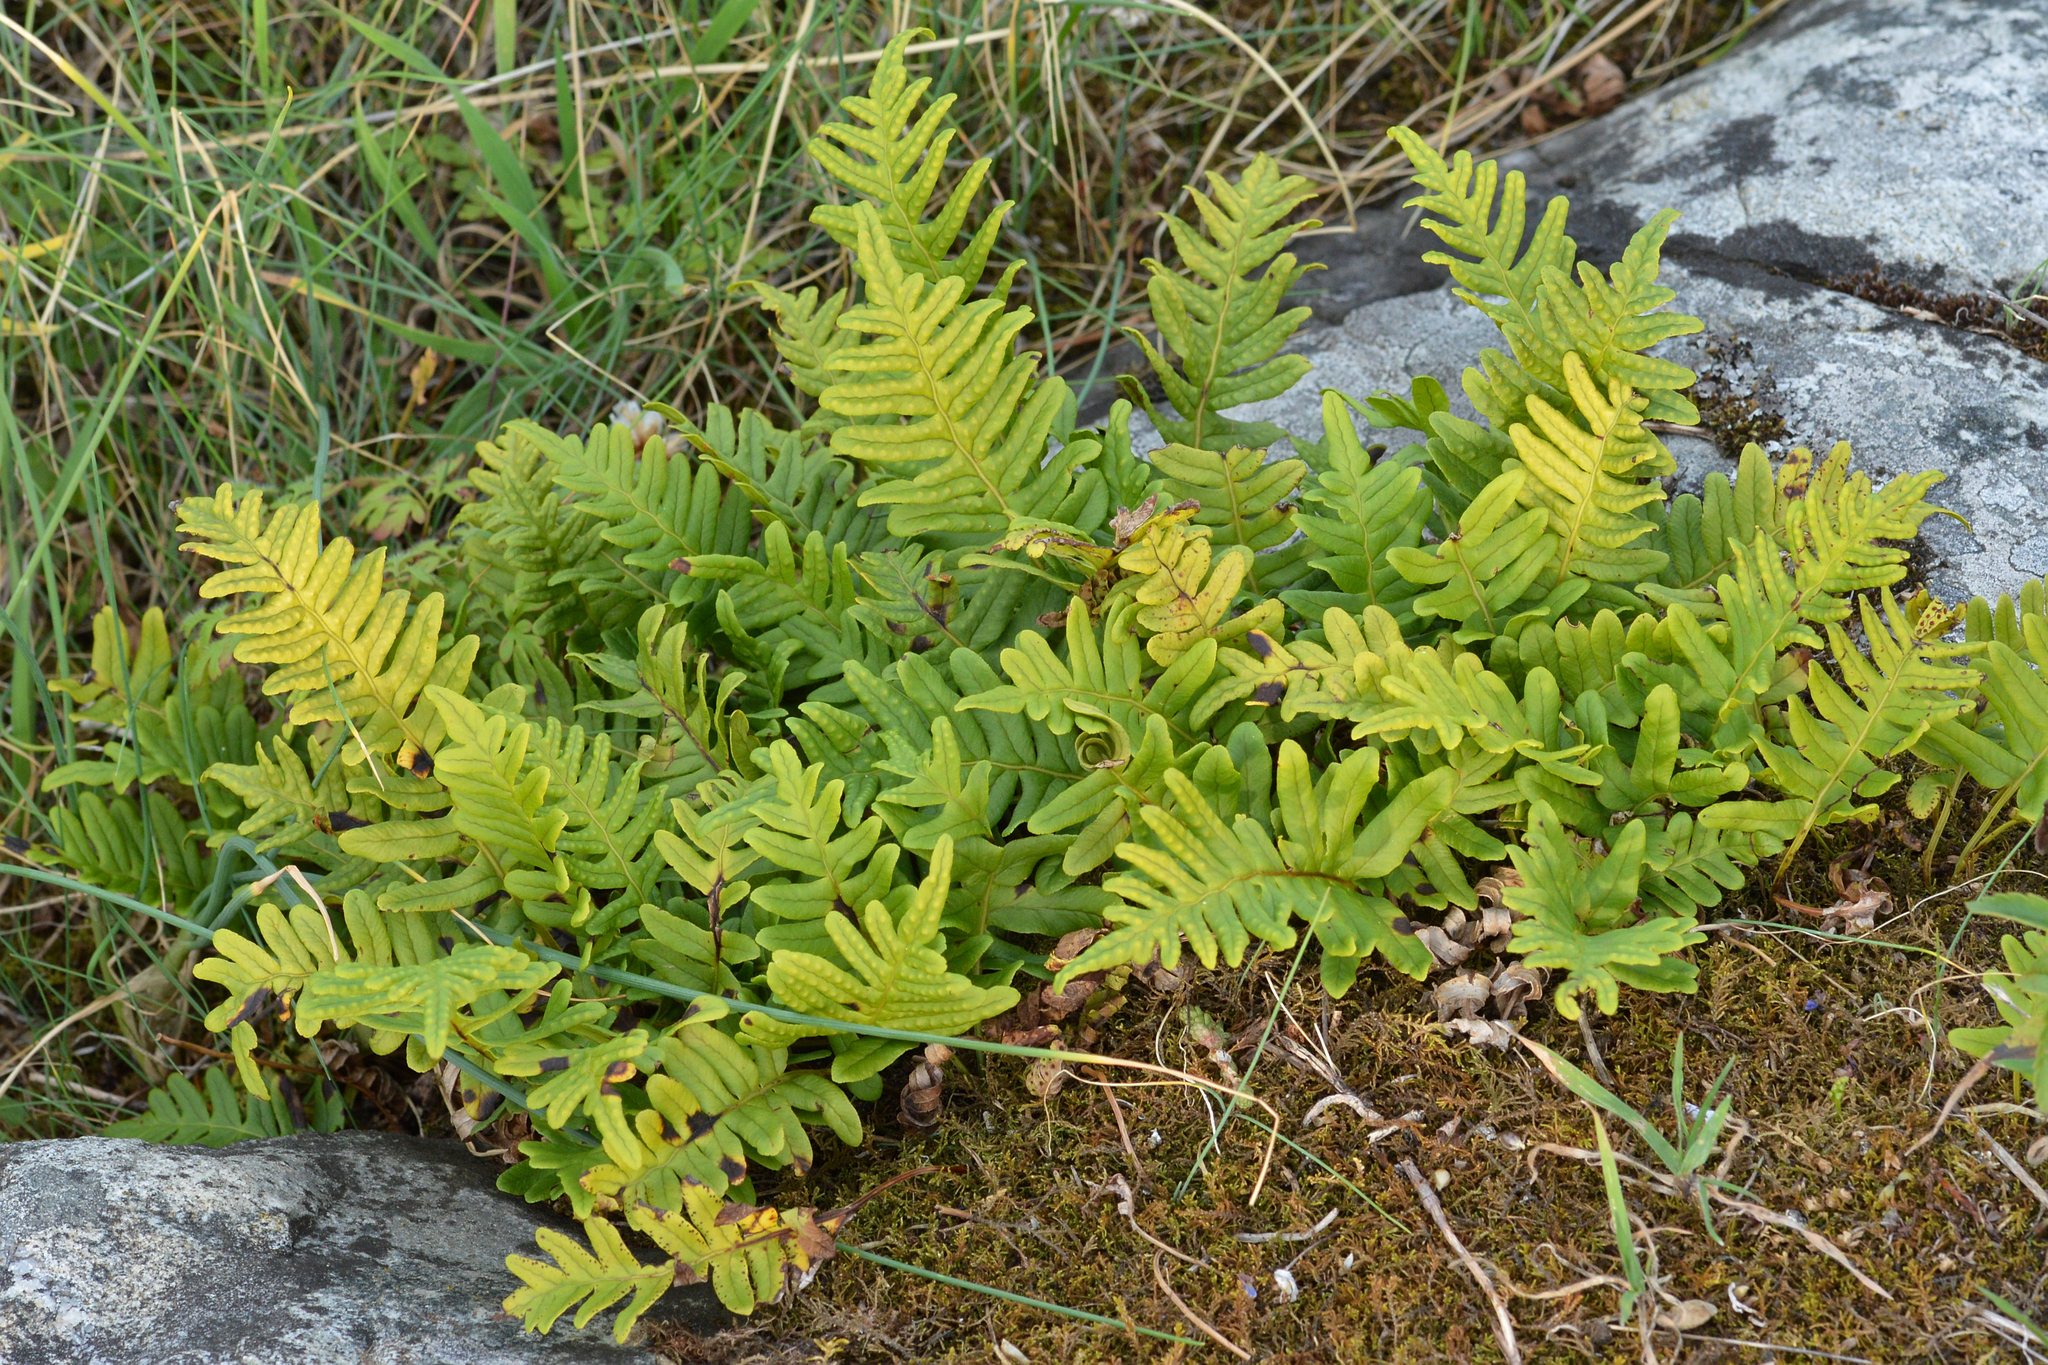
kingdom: Plantae
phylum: Tracheophyta
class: Polypodiopsida
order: Polypodiales
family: Polypodiaceae
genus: Polypodium
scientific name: Polypodium vulgare
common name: Common polypody
